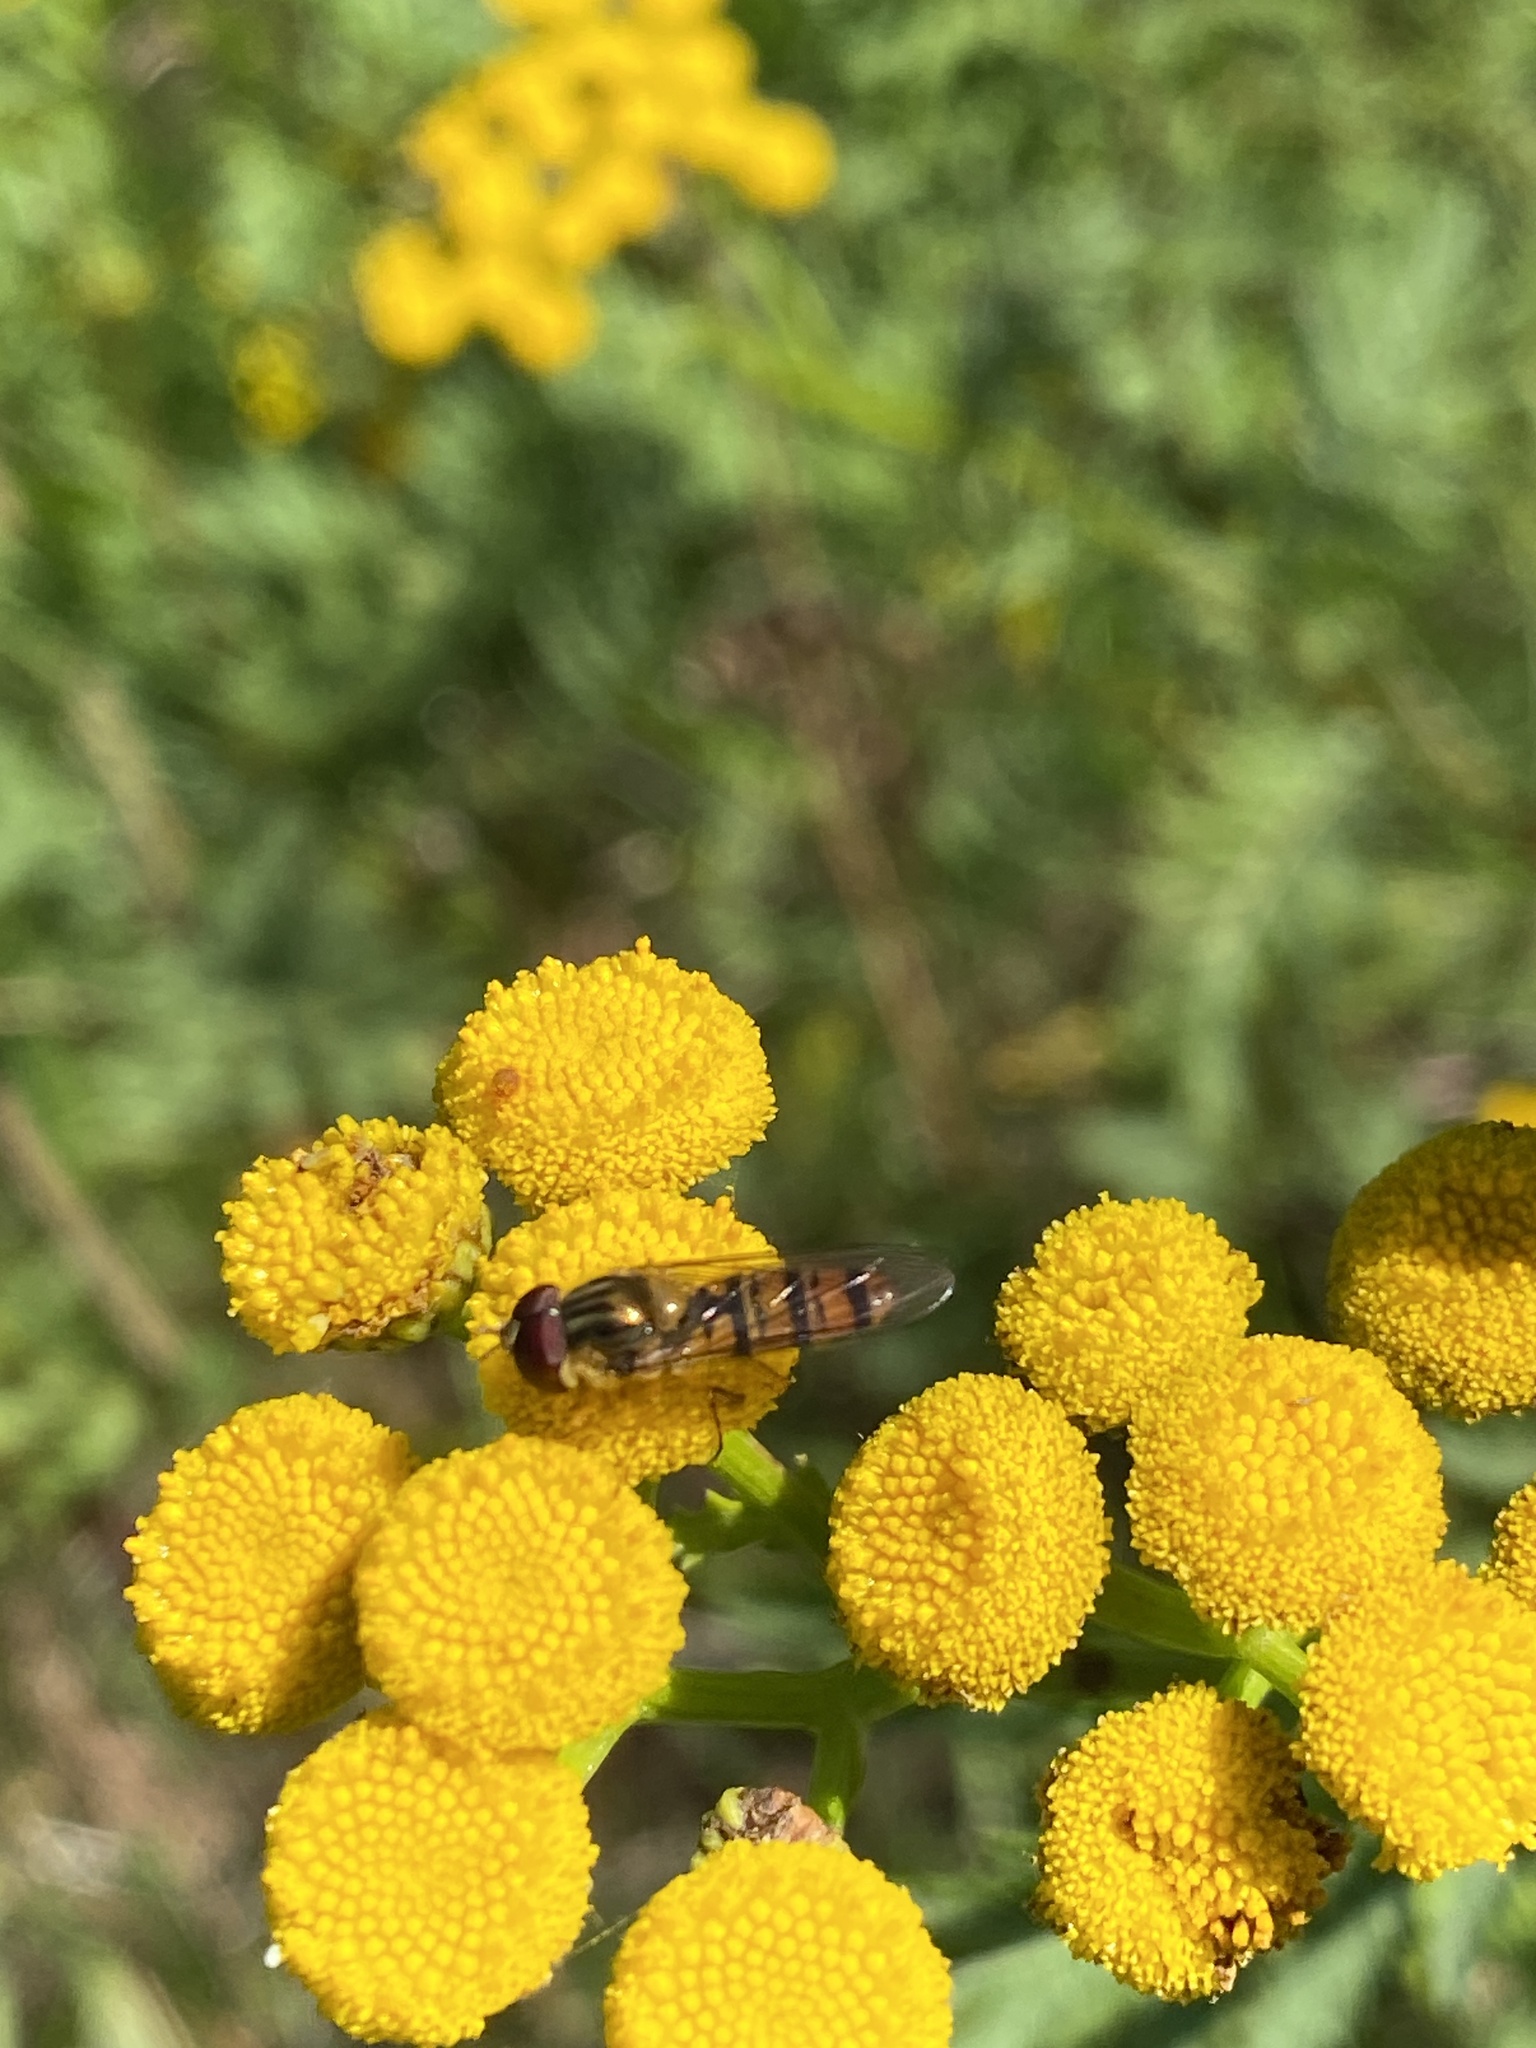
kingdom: Animalia
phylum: Arthropoda
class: Insecta
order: Diptera
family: Syrphidae
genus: Episyrphus
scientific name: Episyrphus balteatus
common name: Marmalade hoverfly
